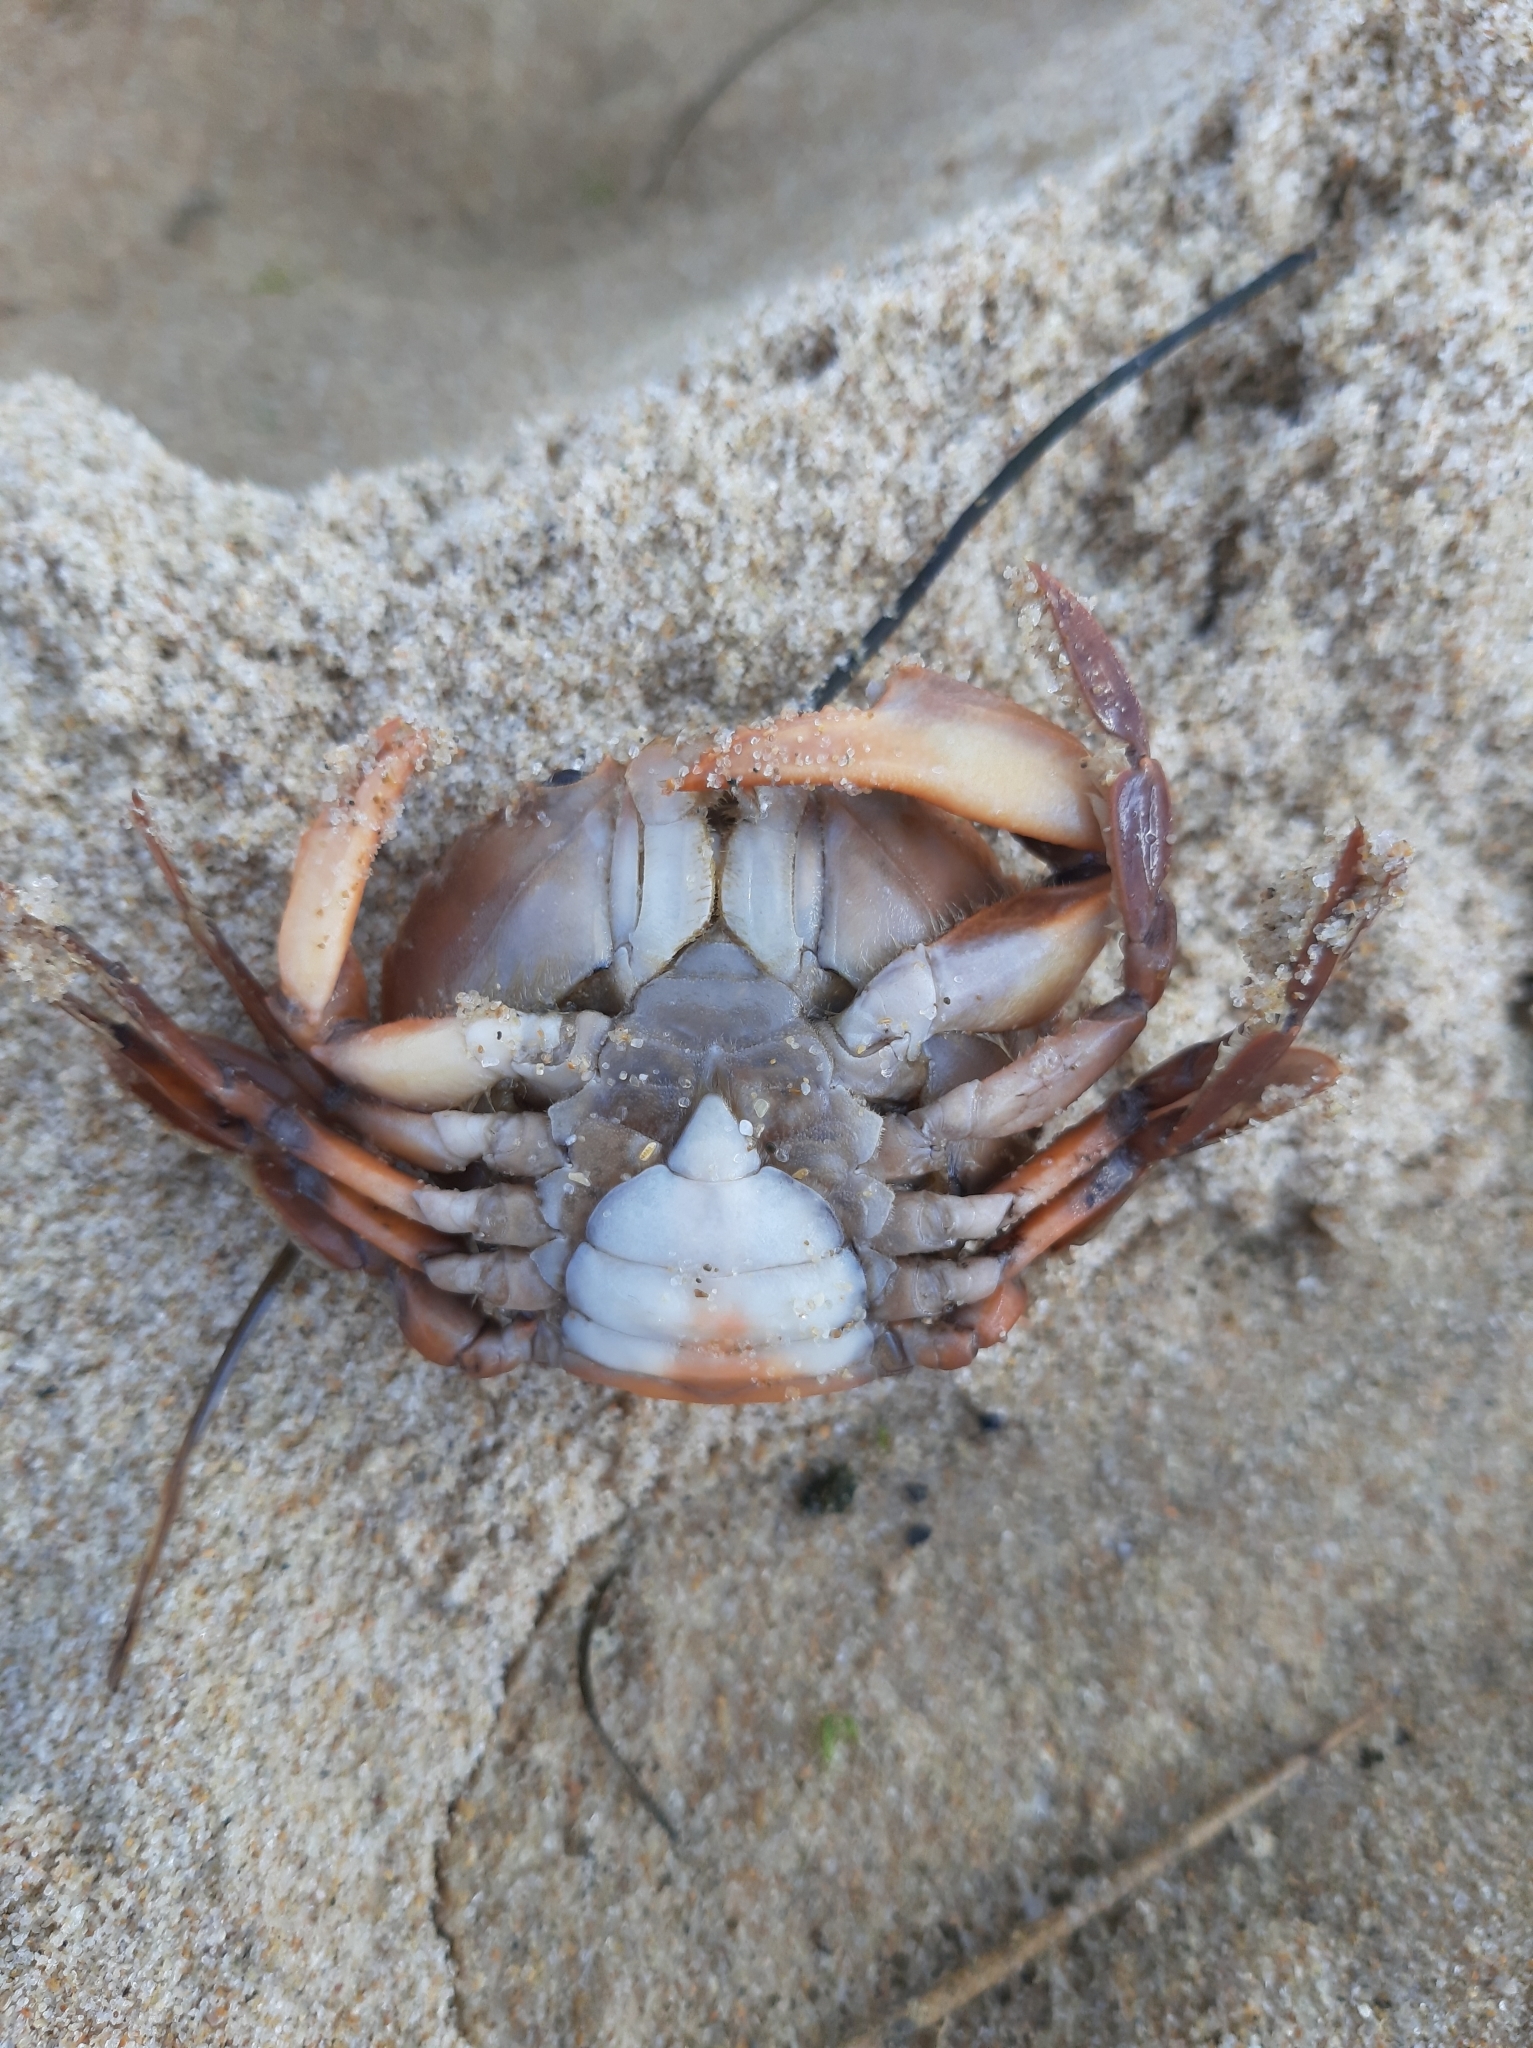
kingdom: Animalia
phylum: Arthropoda
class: Malacostraca
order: Decapoda
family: Polybiidae
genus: Polybius
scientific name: Polybius henslowii
